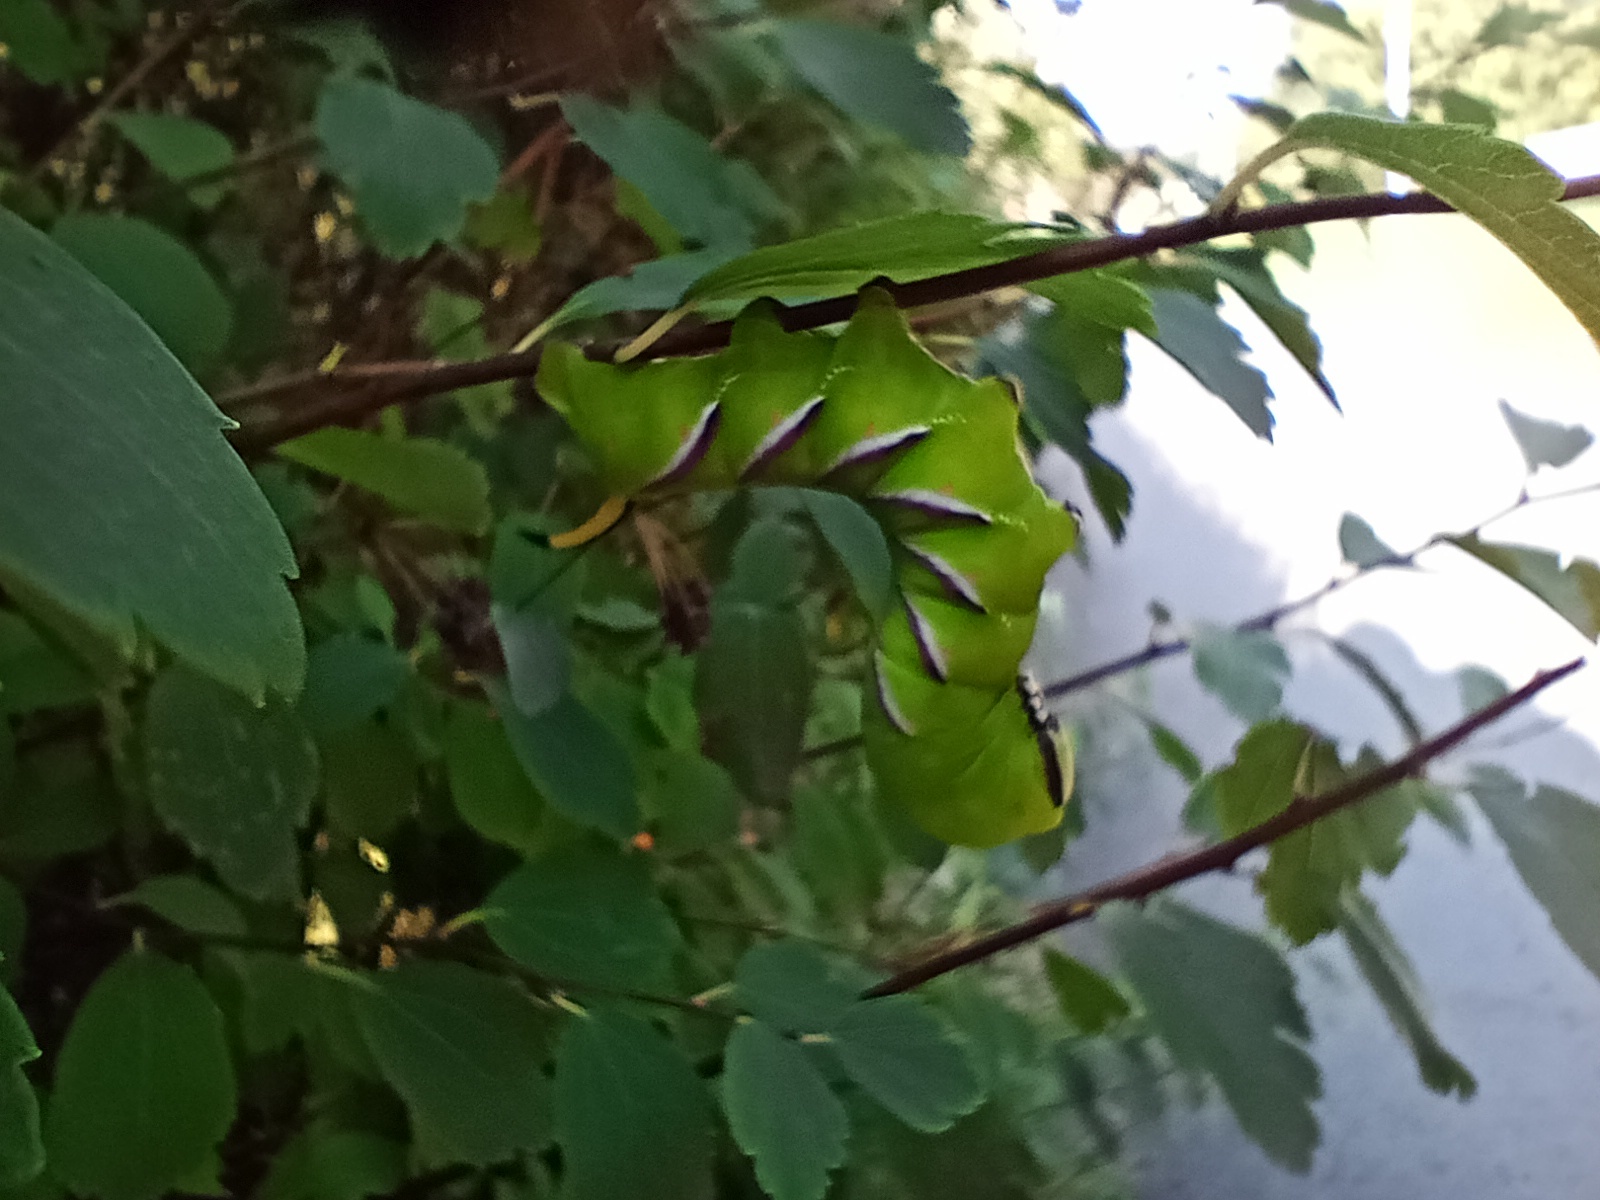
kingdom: Animalia
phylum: Arthropoda
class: Insecta
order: Lepidoptera
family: Sphingidae
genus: Sphinx
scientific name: Sphinx ligustri
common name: Privet hawk-moth
